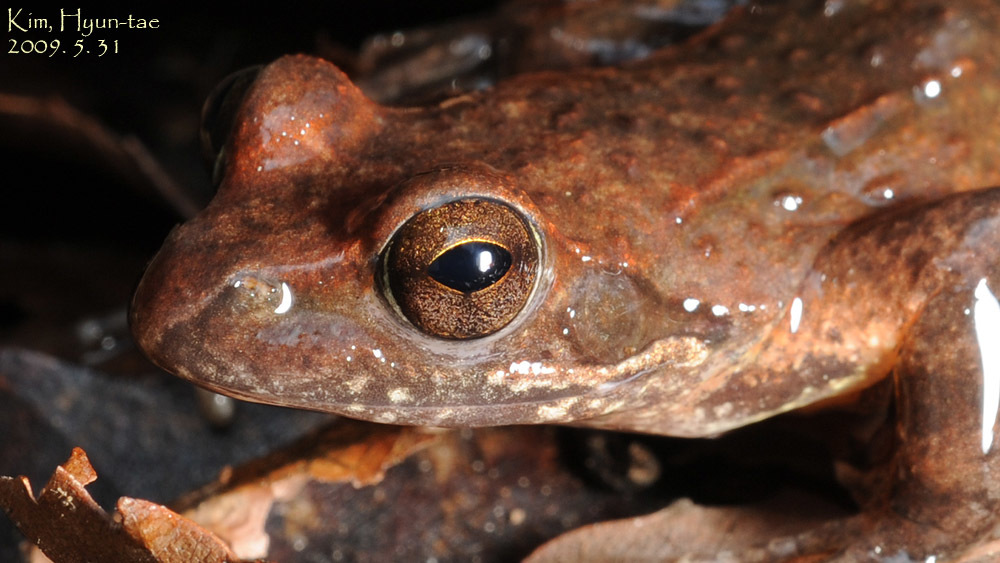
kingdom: Animalia
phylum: Chordata
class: Amphibia
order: Anura
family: Ranidae
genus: Rana
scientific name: Rana huanrenensis
